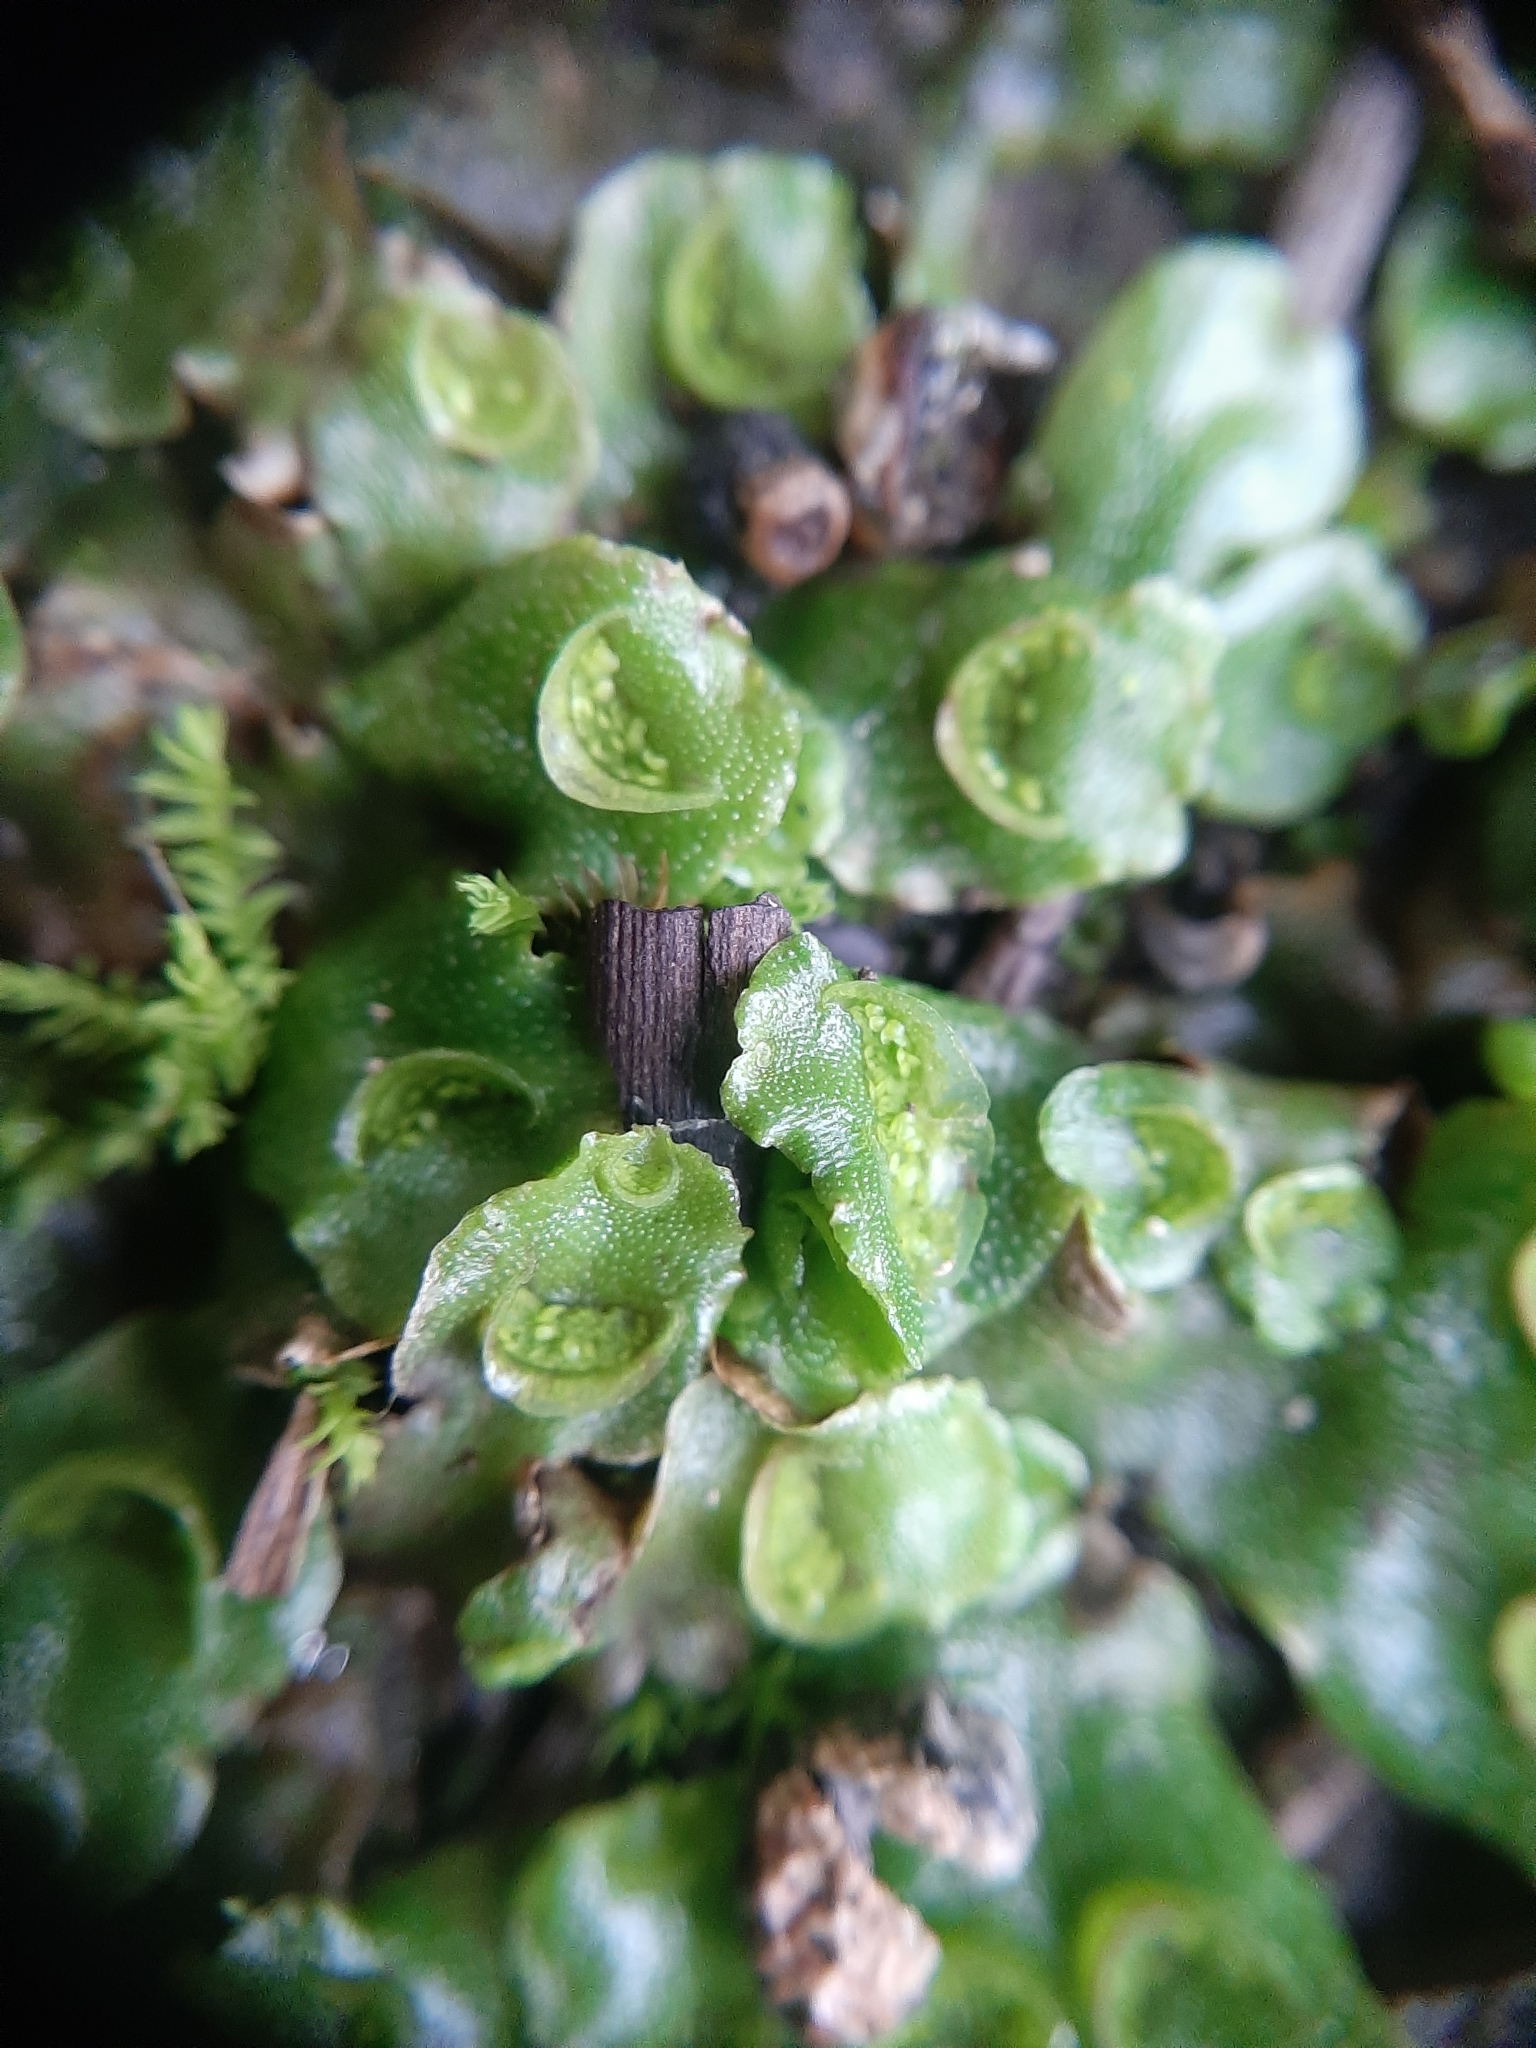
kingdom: Plantae
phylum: Marchantiophyta
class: Marchantiopsida
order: Lunulariales
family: Lunulariaceae
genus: Lunularia
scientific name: Lunularia cruciata
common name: Crescent-cup liverwort
